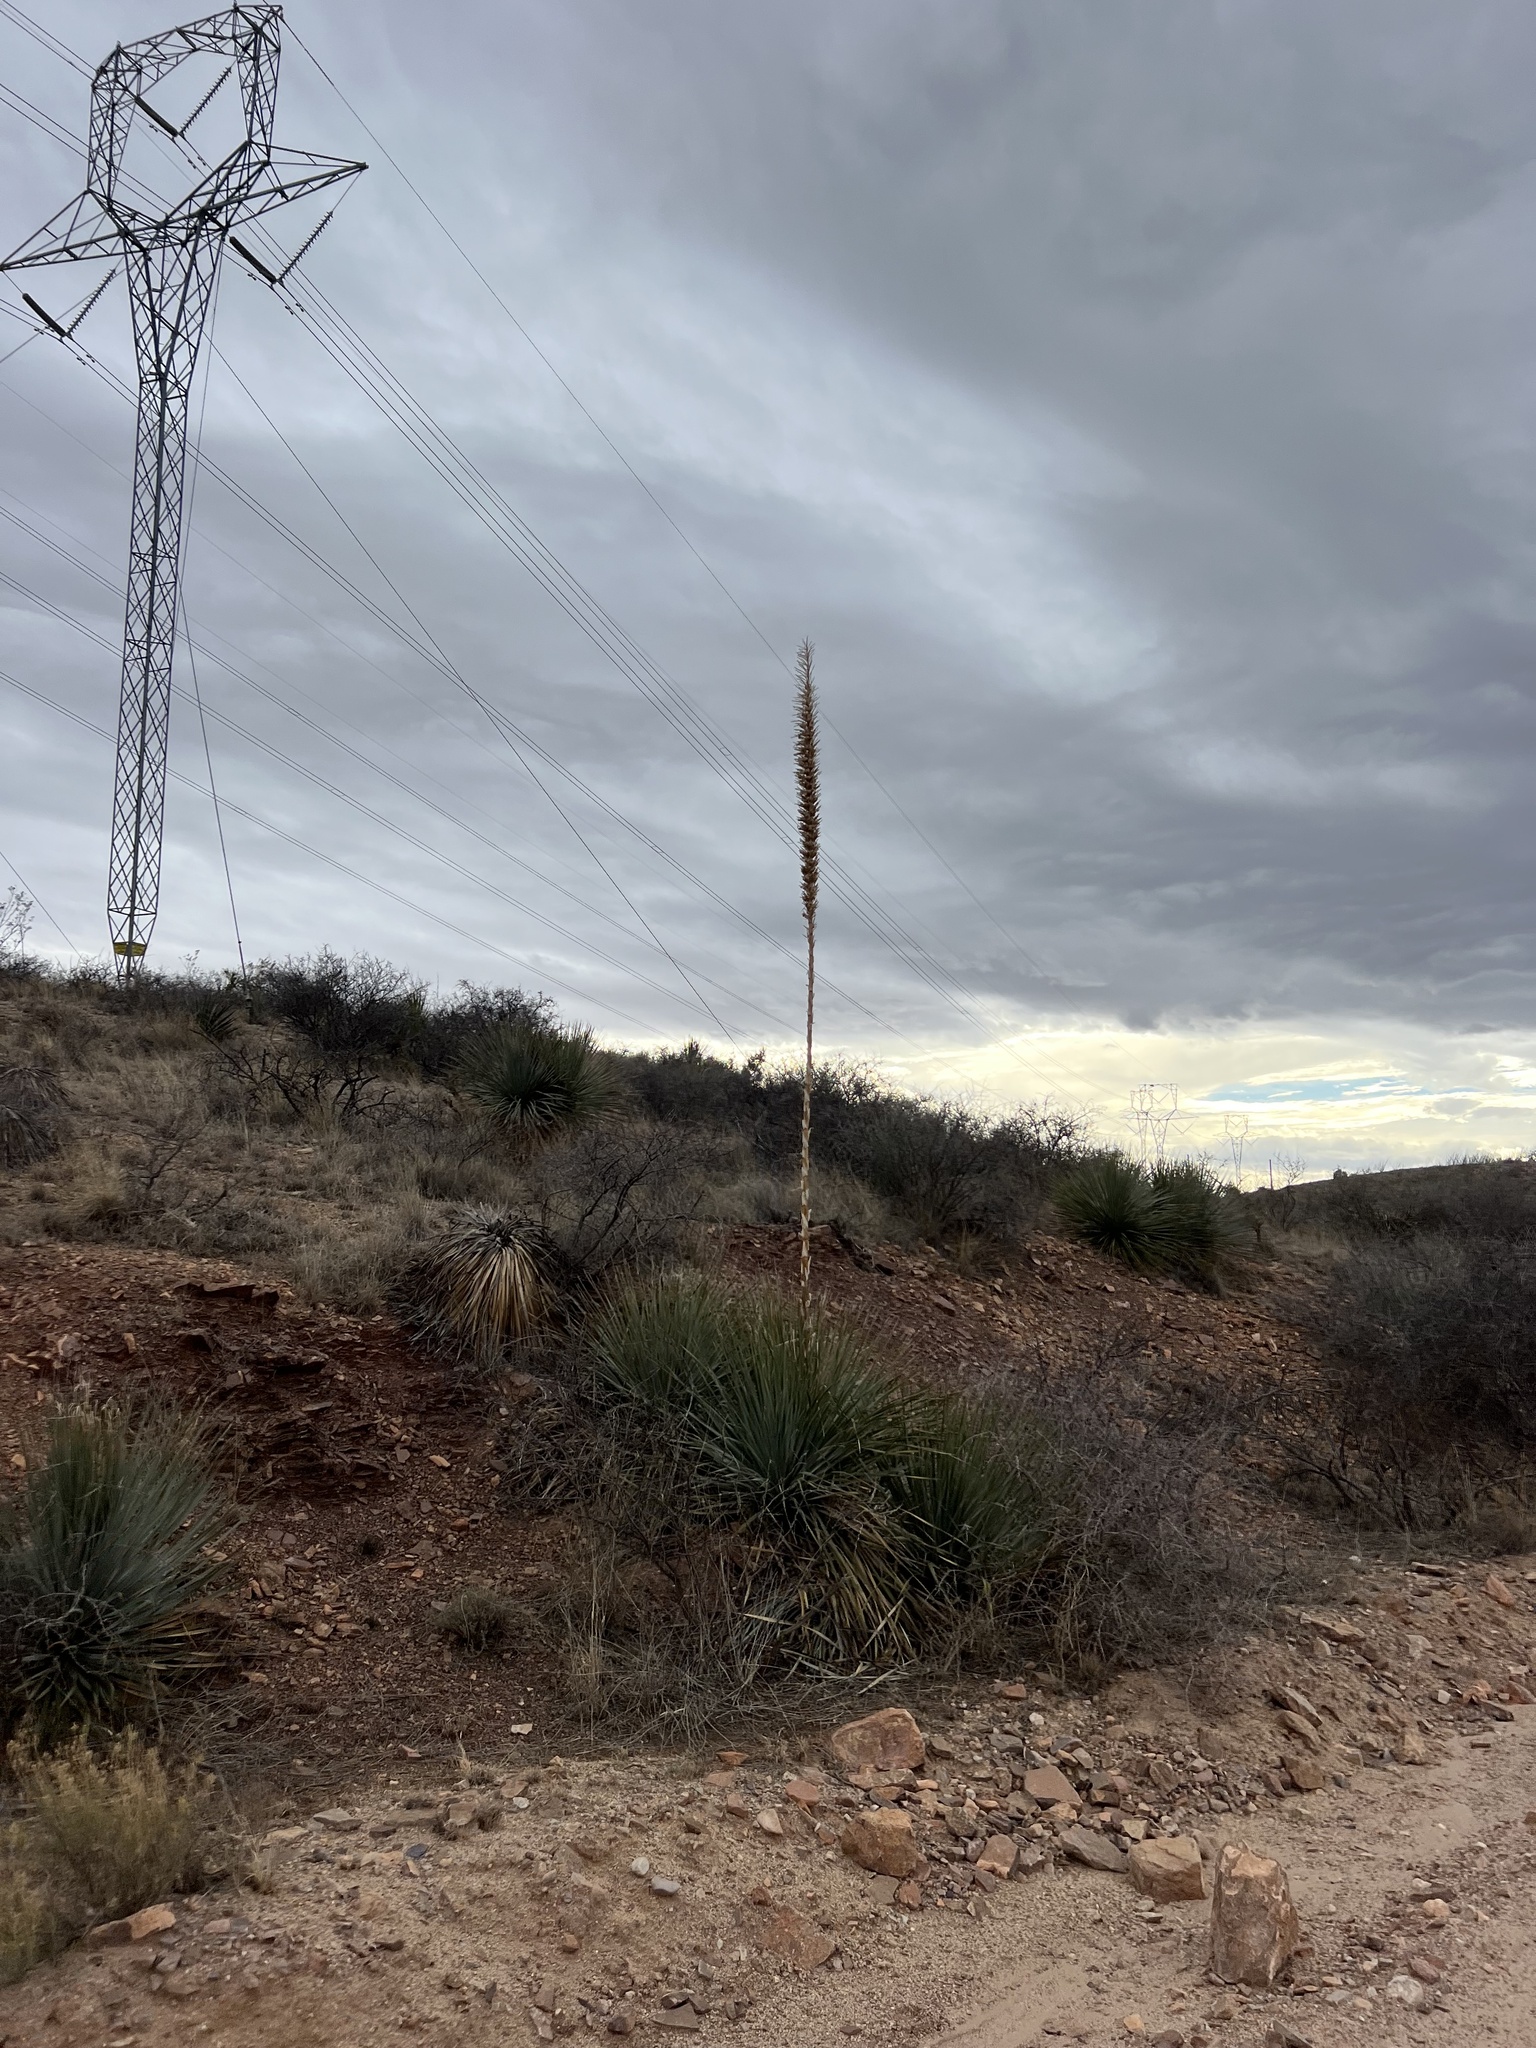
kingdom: Plantae
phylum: Tracheophyta
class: Liliopsida
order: Asparagales
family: Asparagaceae
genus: Dasylirion
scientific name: Dasylirion wheeleri
